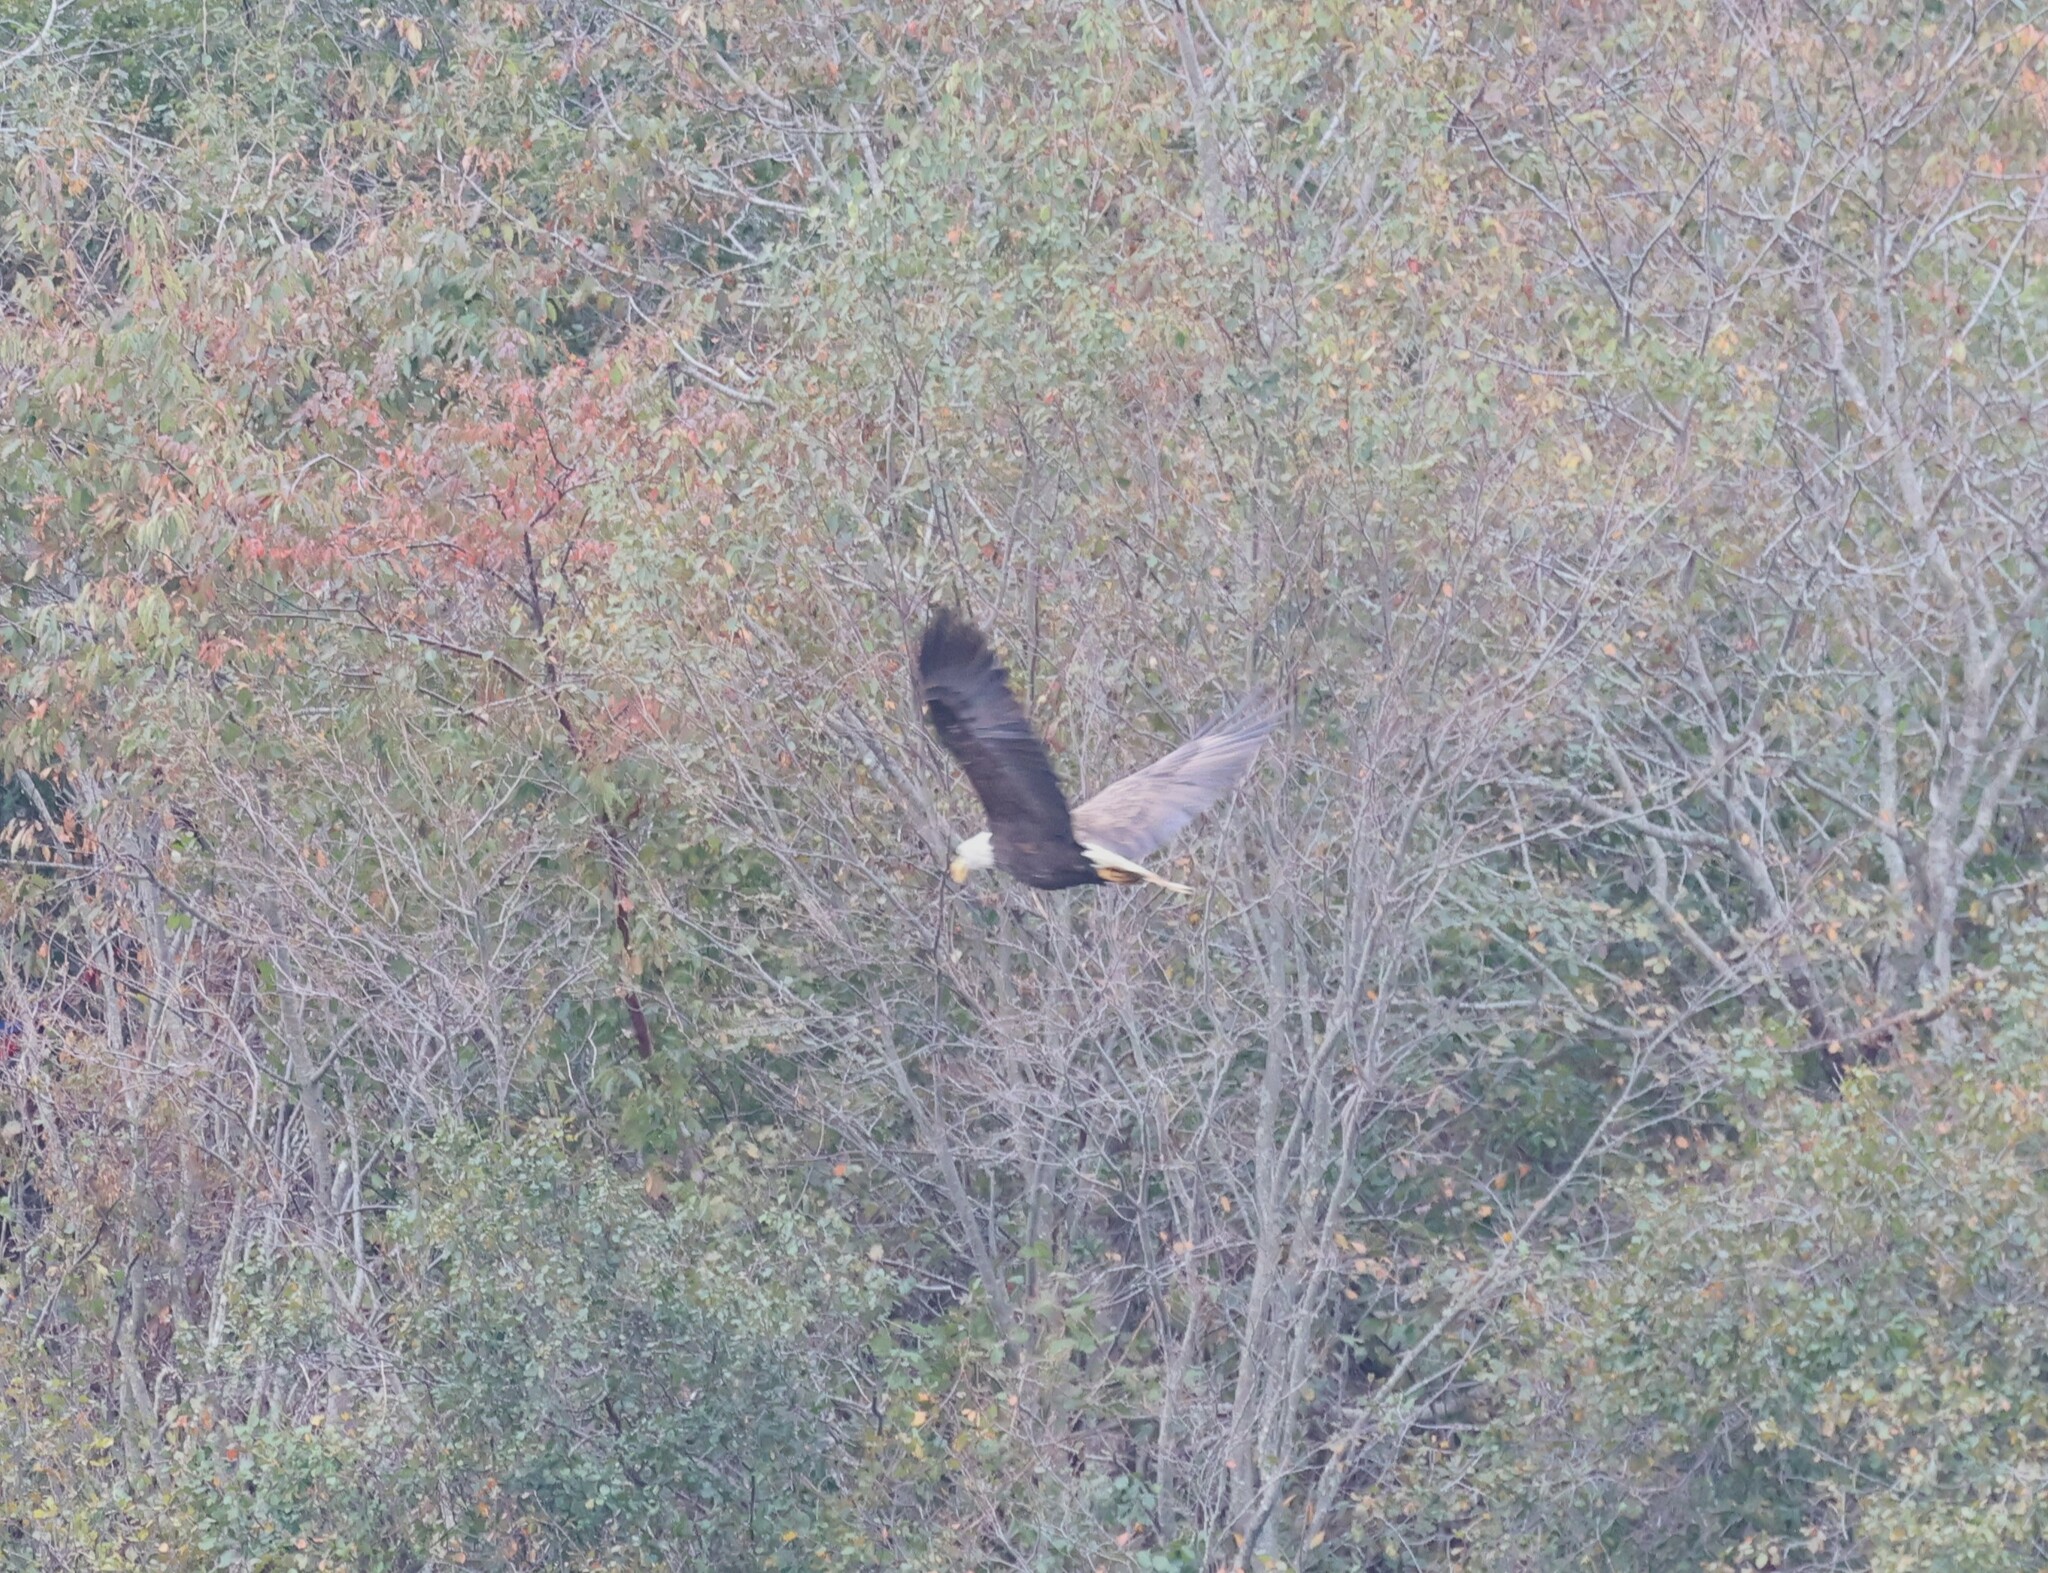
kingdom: Animalia
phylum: Chordata
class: Aves
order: Accipitriformes
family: Accipitridae
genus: Haliaeetus
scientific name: Haliaeetus leucocephalus
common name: Bald eagle
